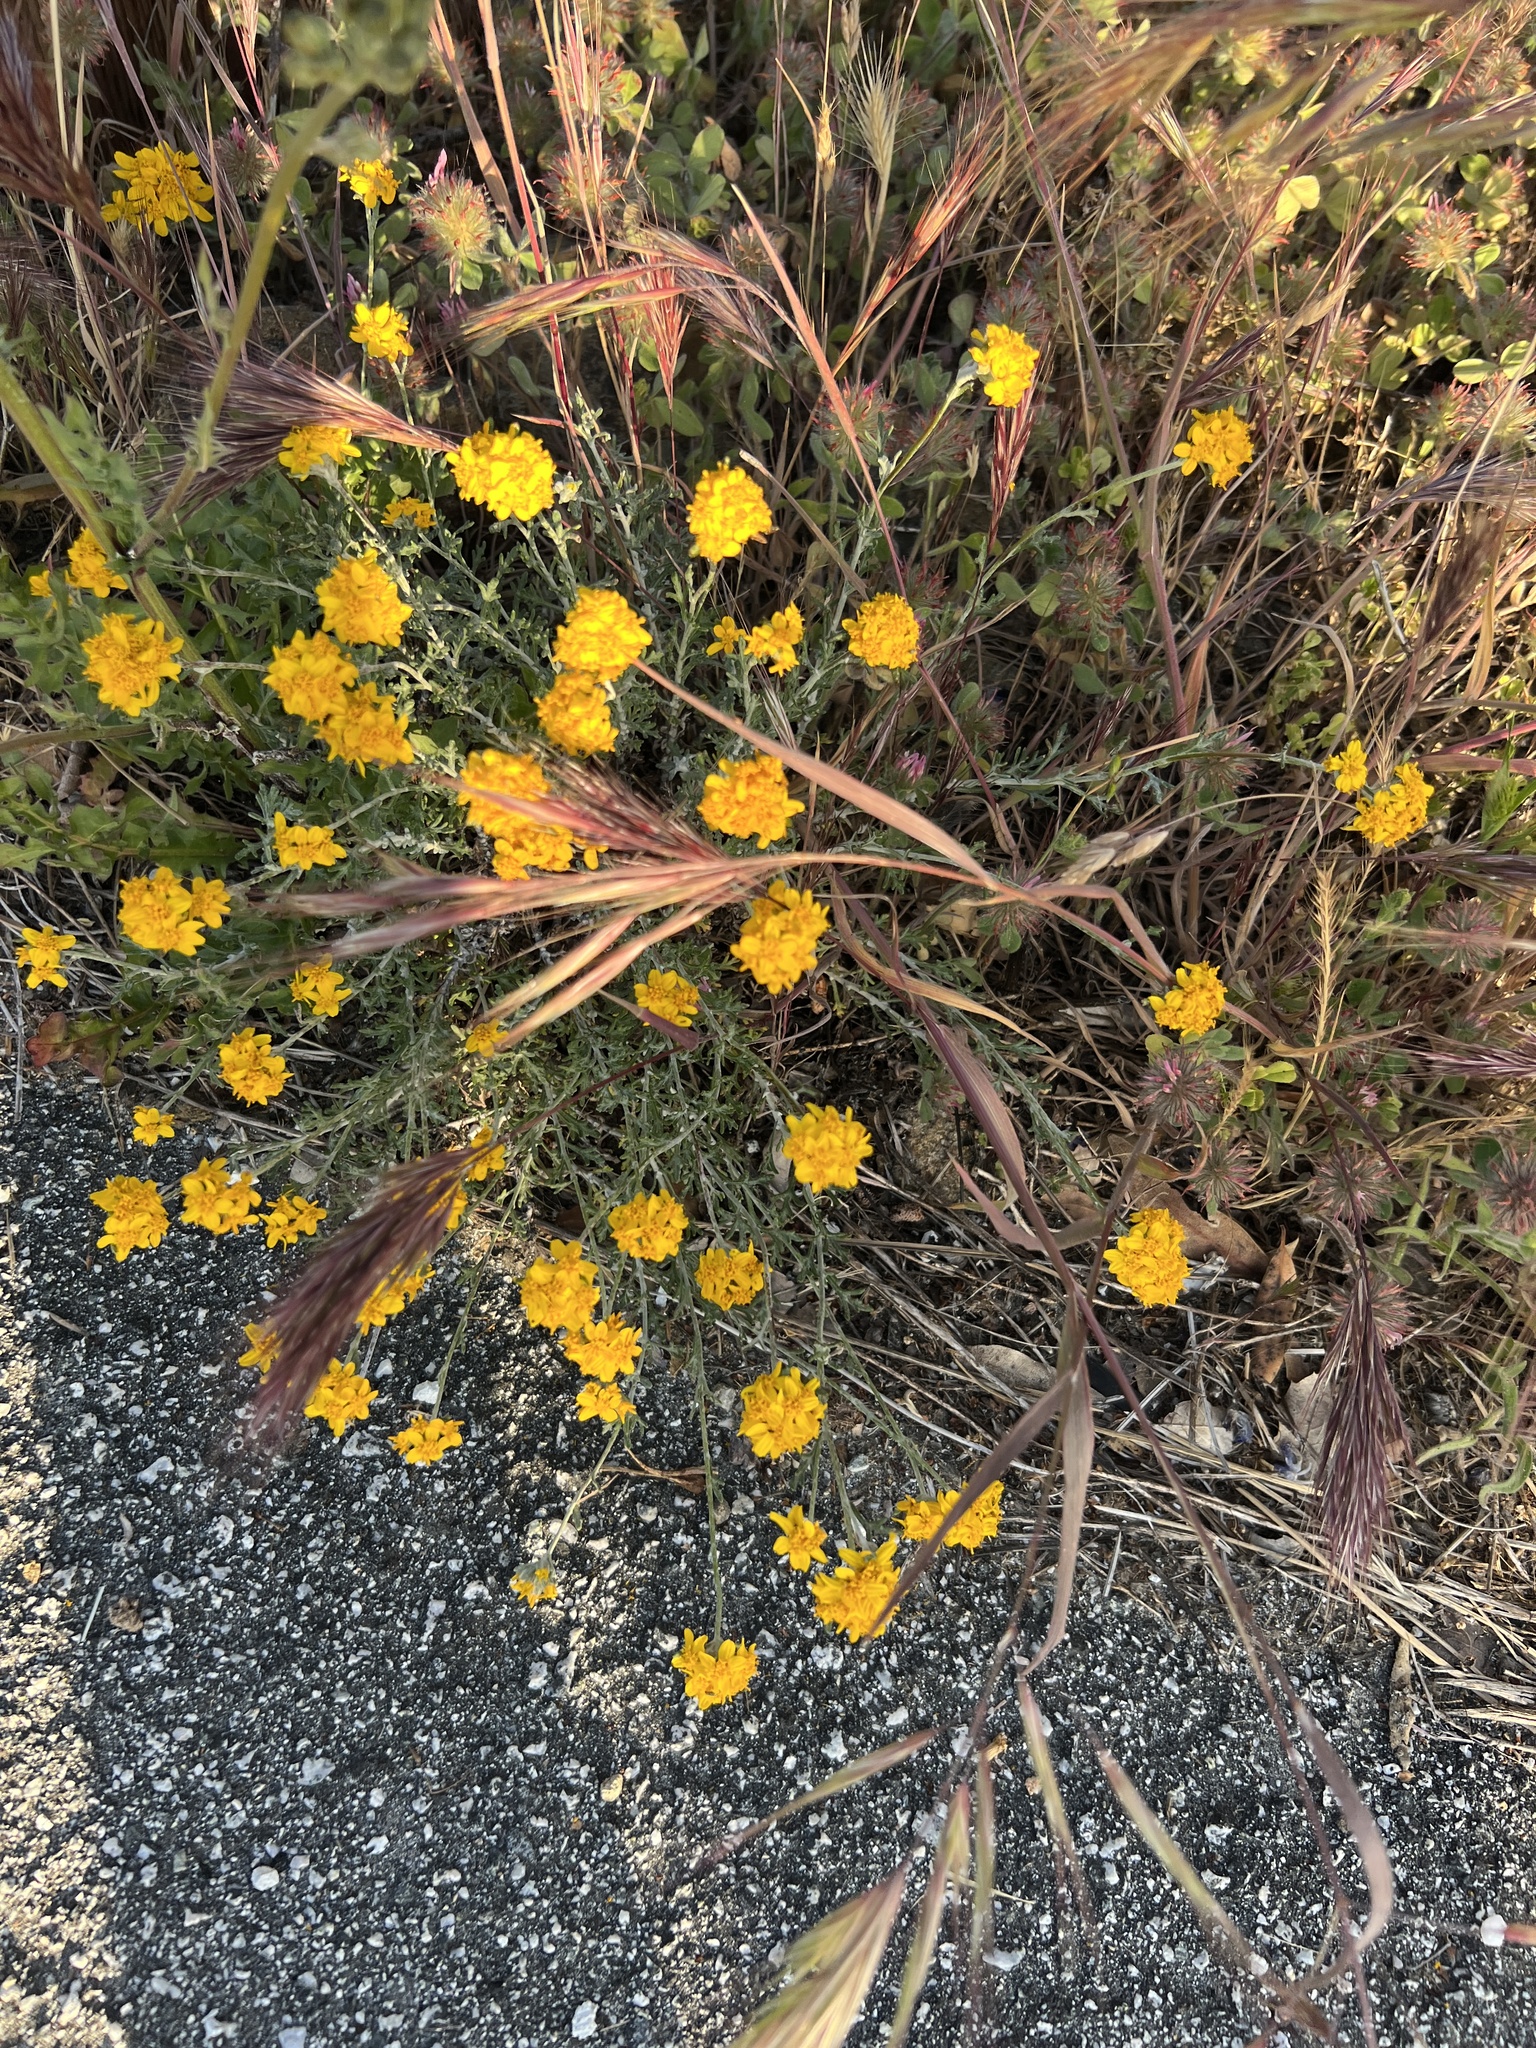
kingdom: Plantae
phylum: Tracheophyta
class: Magnoliopsida
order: Asterales
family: Asteraceae
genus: Eriophyllum
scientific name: Eriophyllum confertiflorum
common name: Golden-yarrow
